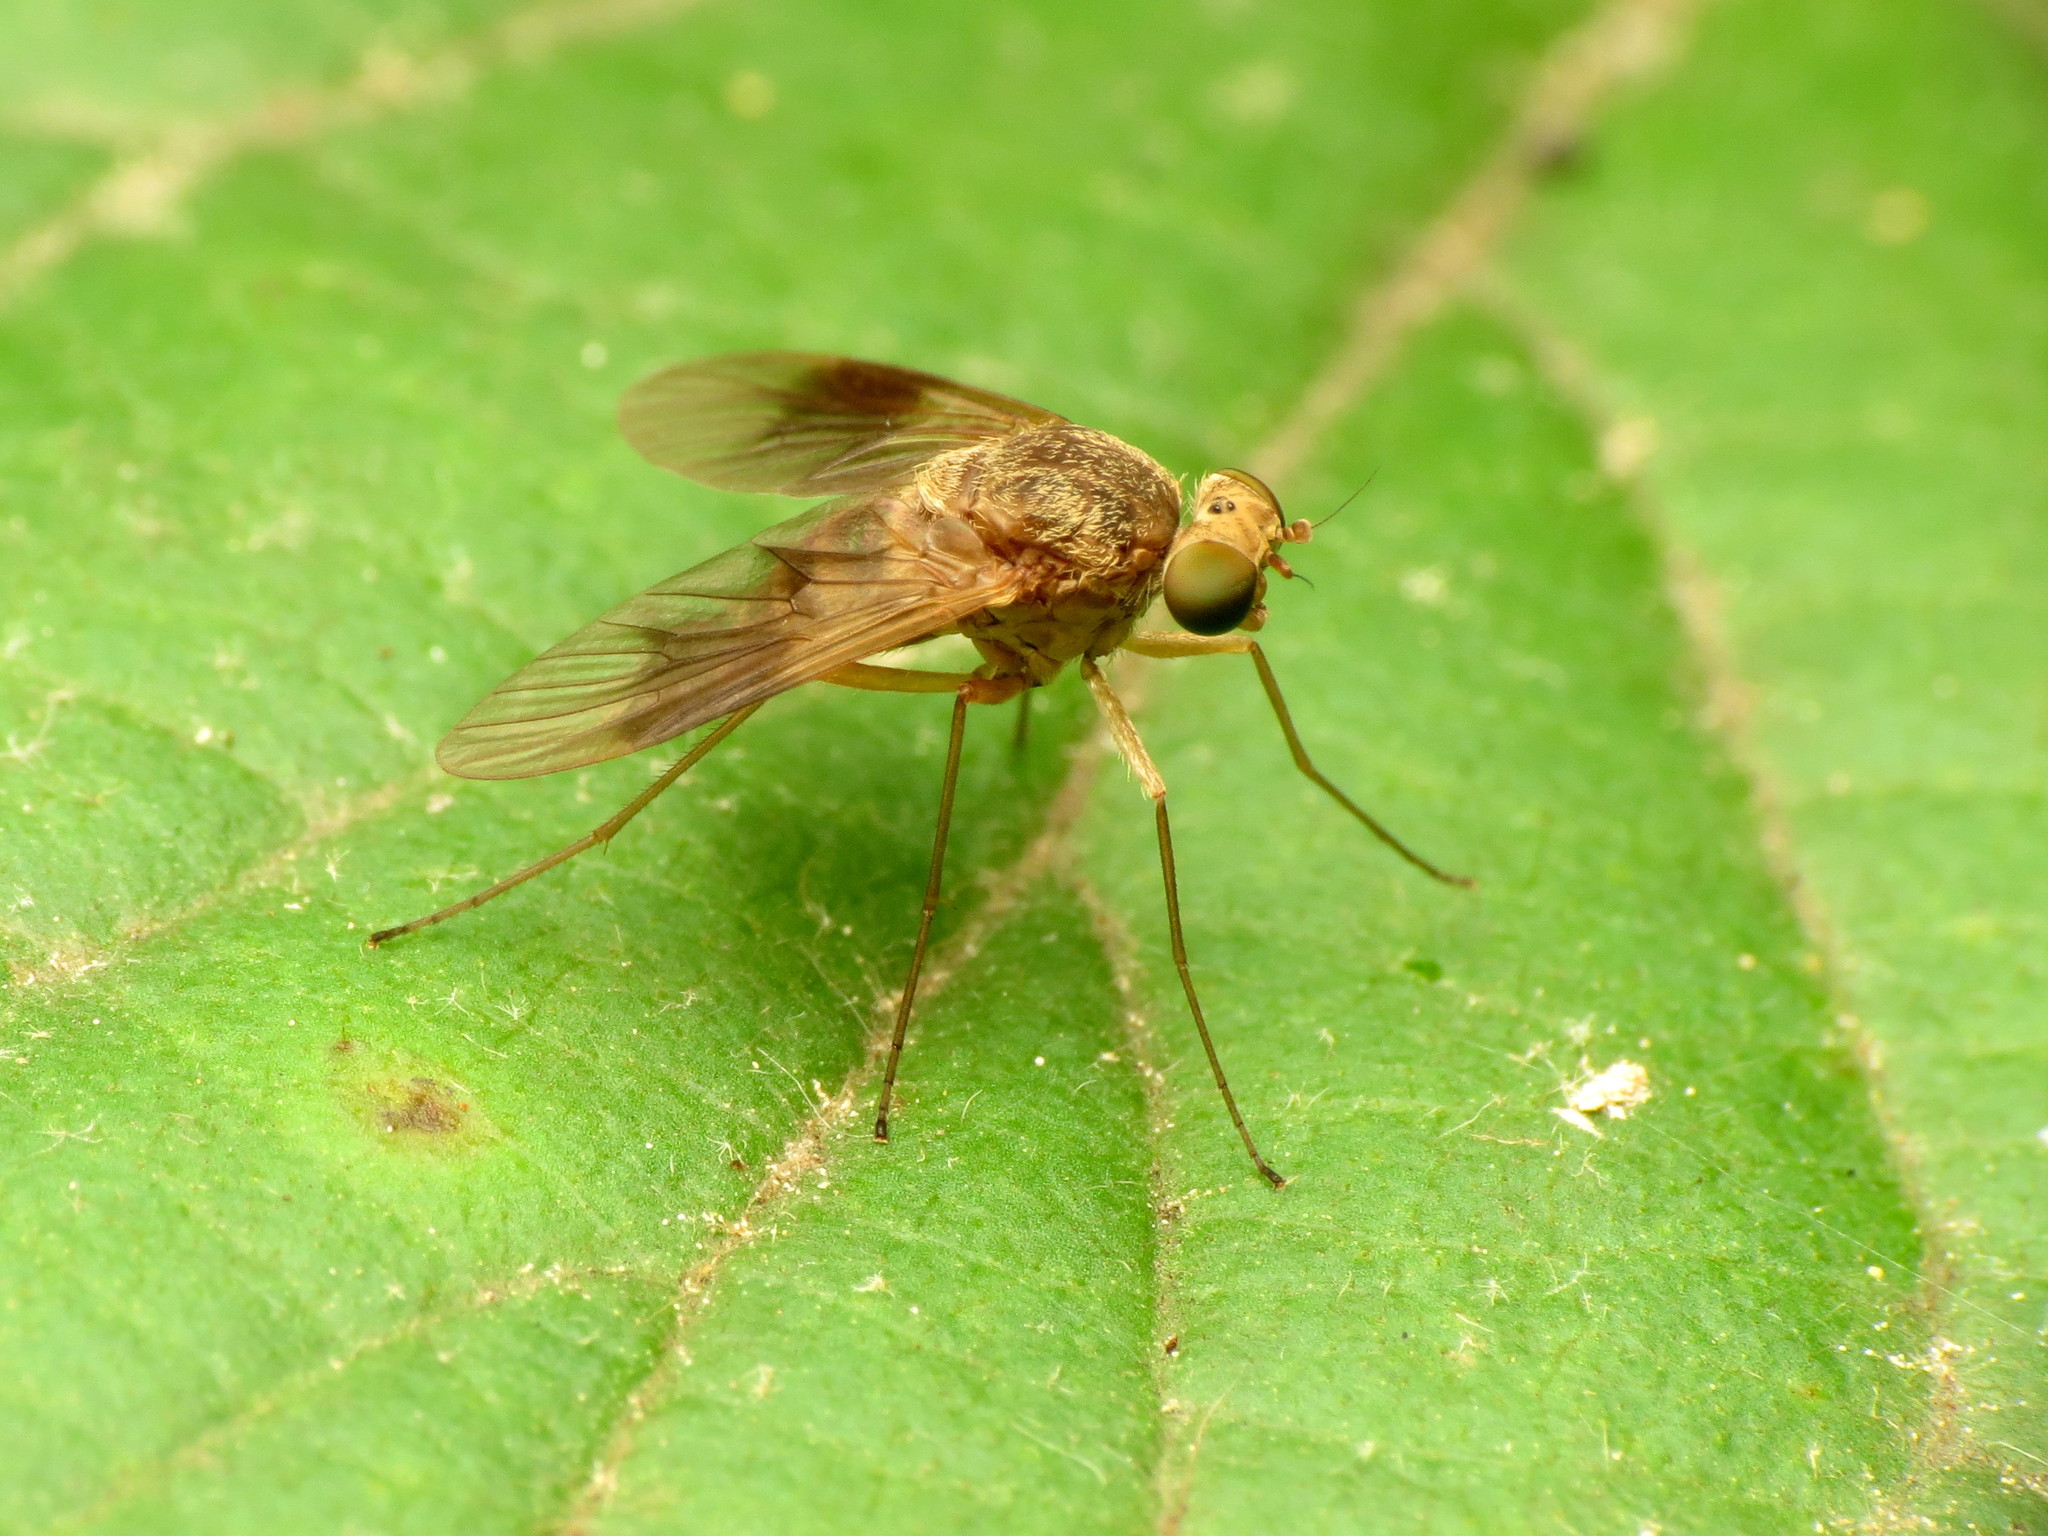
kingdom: Animalia
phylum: Arthropoda
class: Insecta
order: Diptera
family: Rhagionidae
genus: Chrysopilus
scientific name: Chrysopilus quadratus
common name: Quadrate snipe fly
